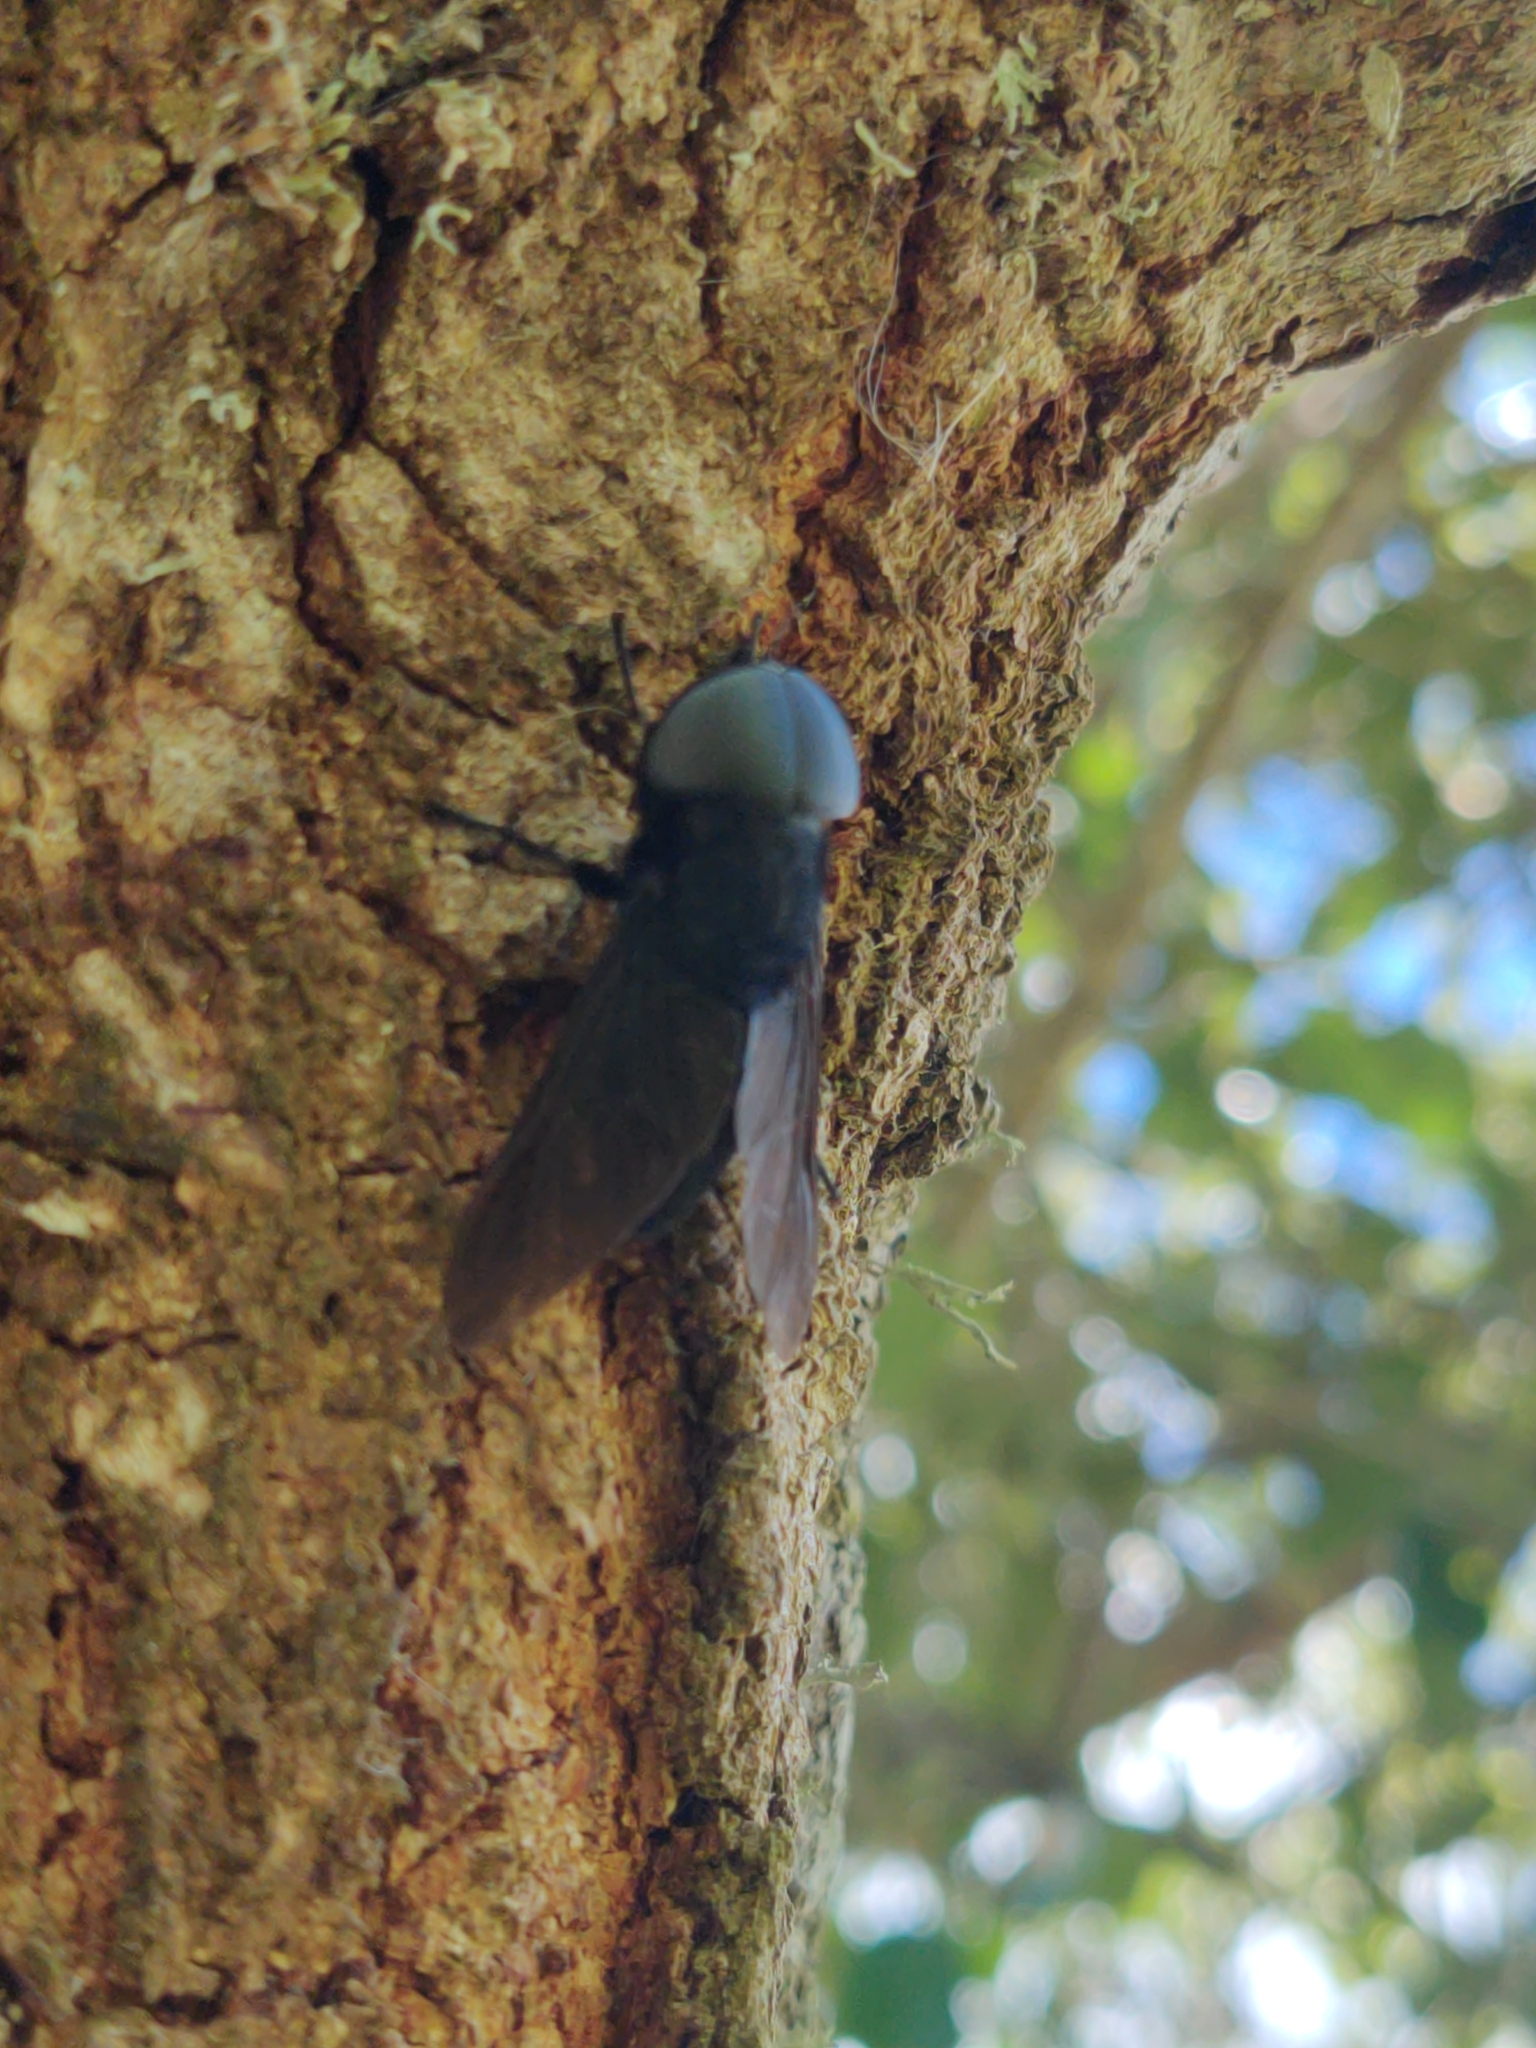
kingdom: Animalia
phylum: Arthropoda
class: Insecta
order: Diptera
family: Tabanidae
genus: Tabanus
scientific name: Tabanus atratus
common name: Black horse fly
